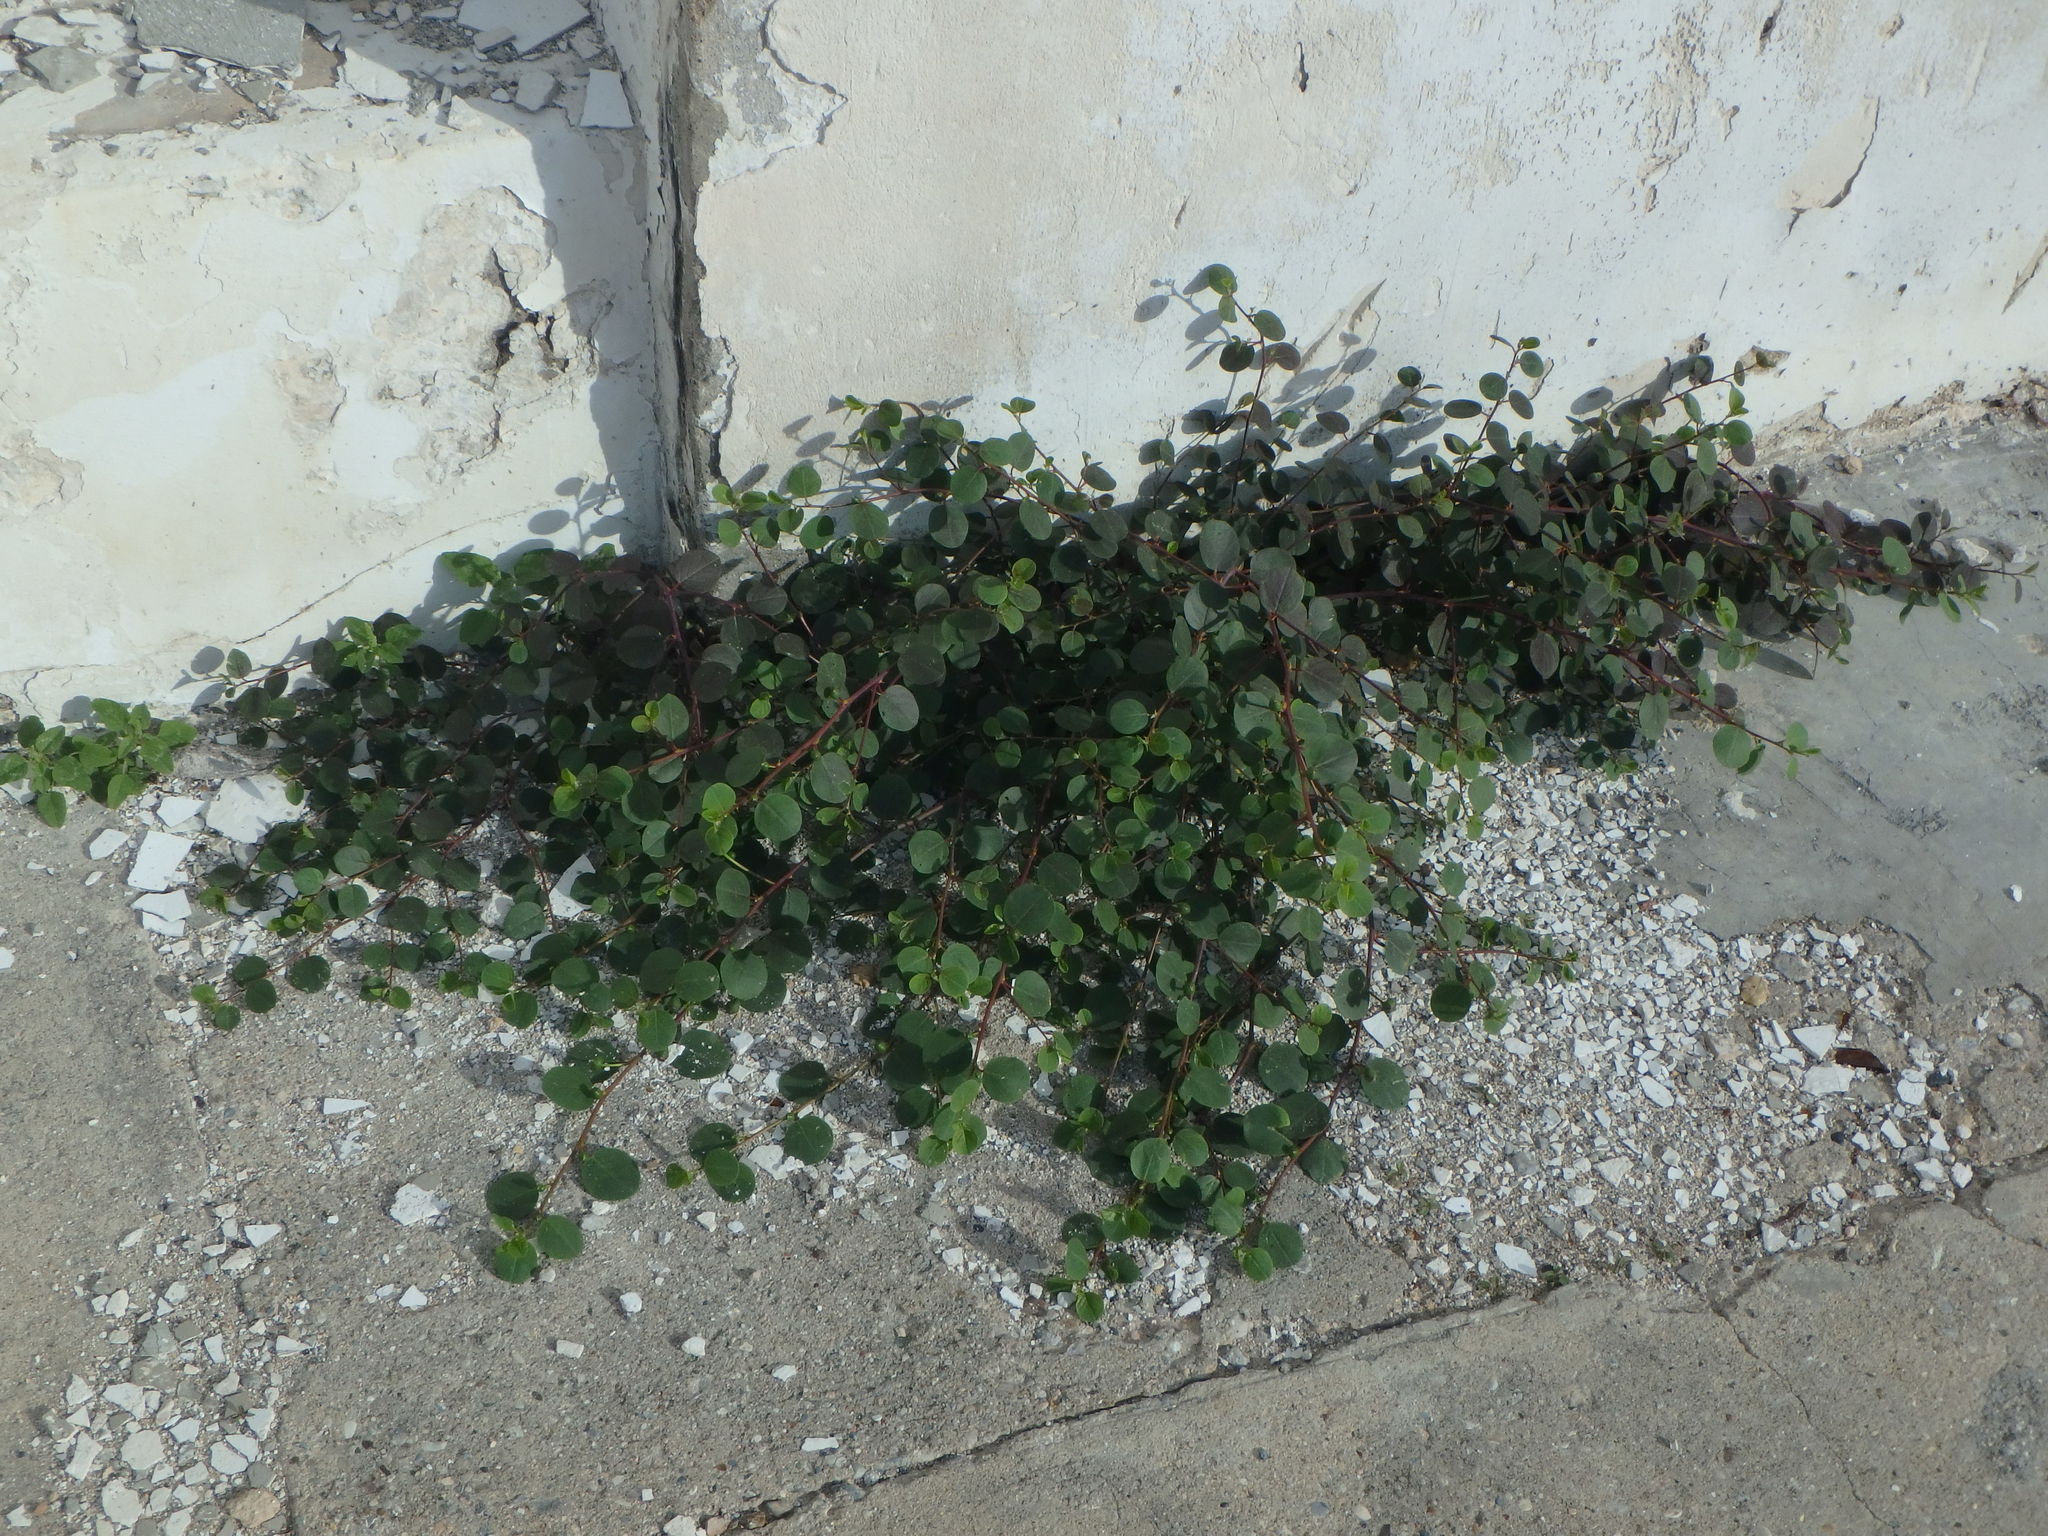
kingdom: Plantae
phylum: Tracheophyta
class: Magnoliopsida
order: Brassicales
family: Capparaceae
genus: Capparis
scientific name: Capparis spinosa
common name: Caper
